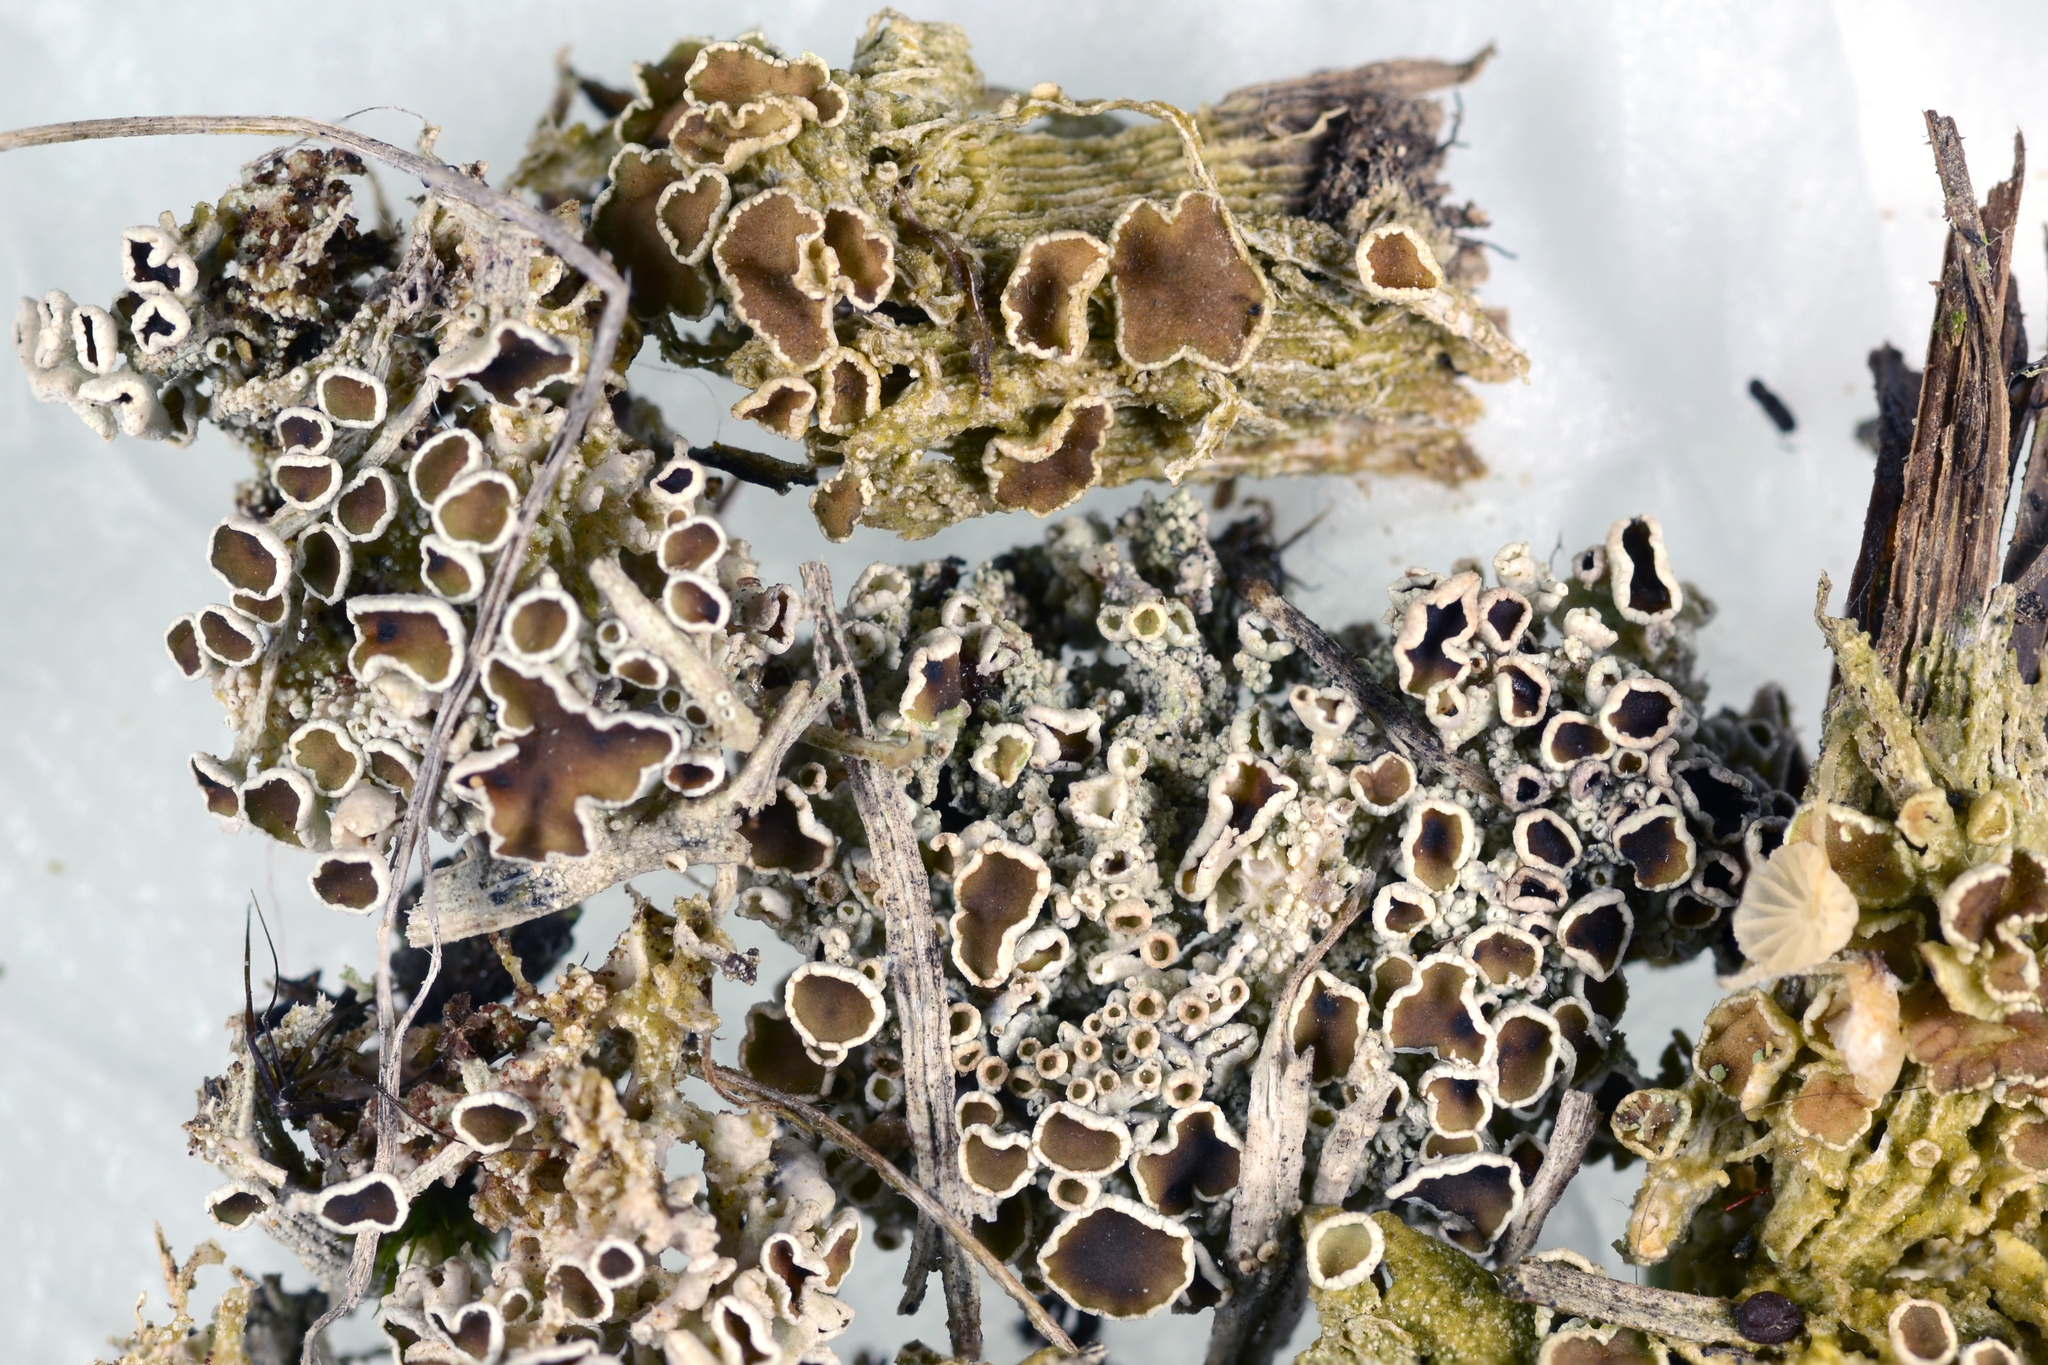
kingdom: Fungi
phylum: Ascomycota
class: Lecanoromycetes
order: Lecanorales
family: Lecanoraceae
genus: Lecanora
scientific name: Lecanora lugubris
